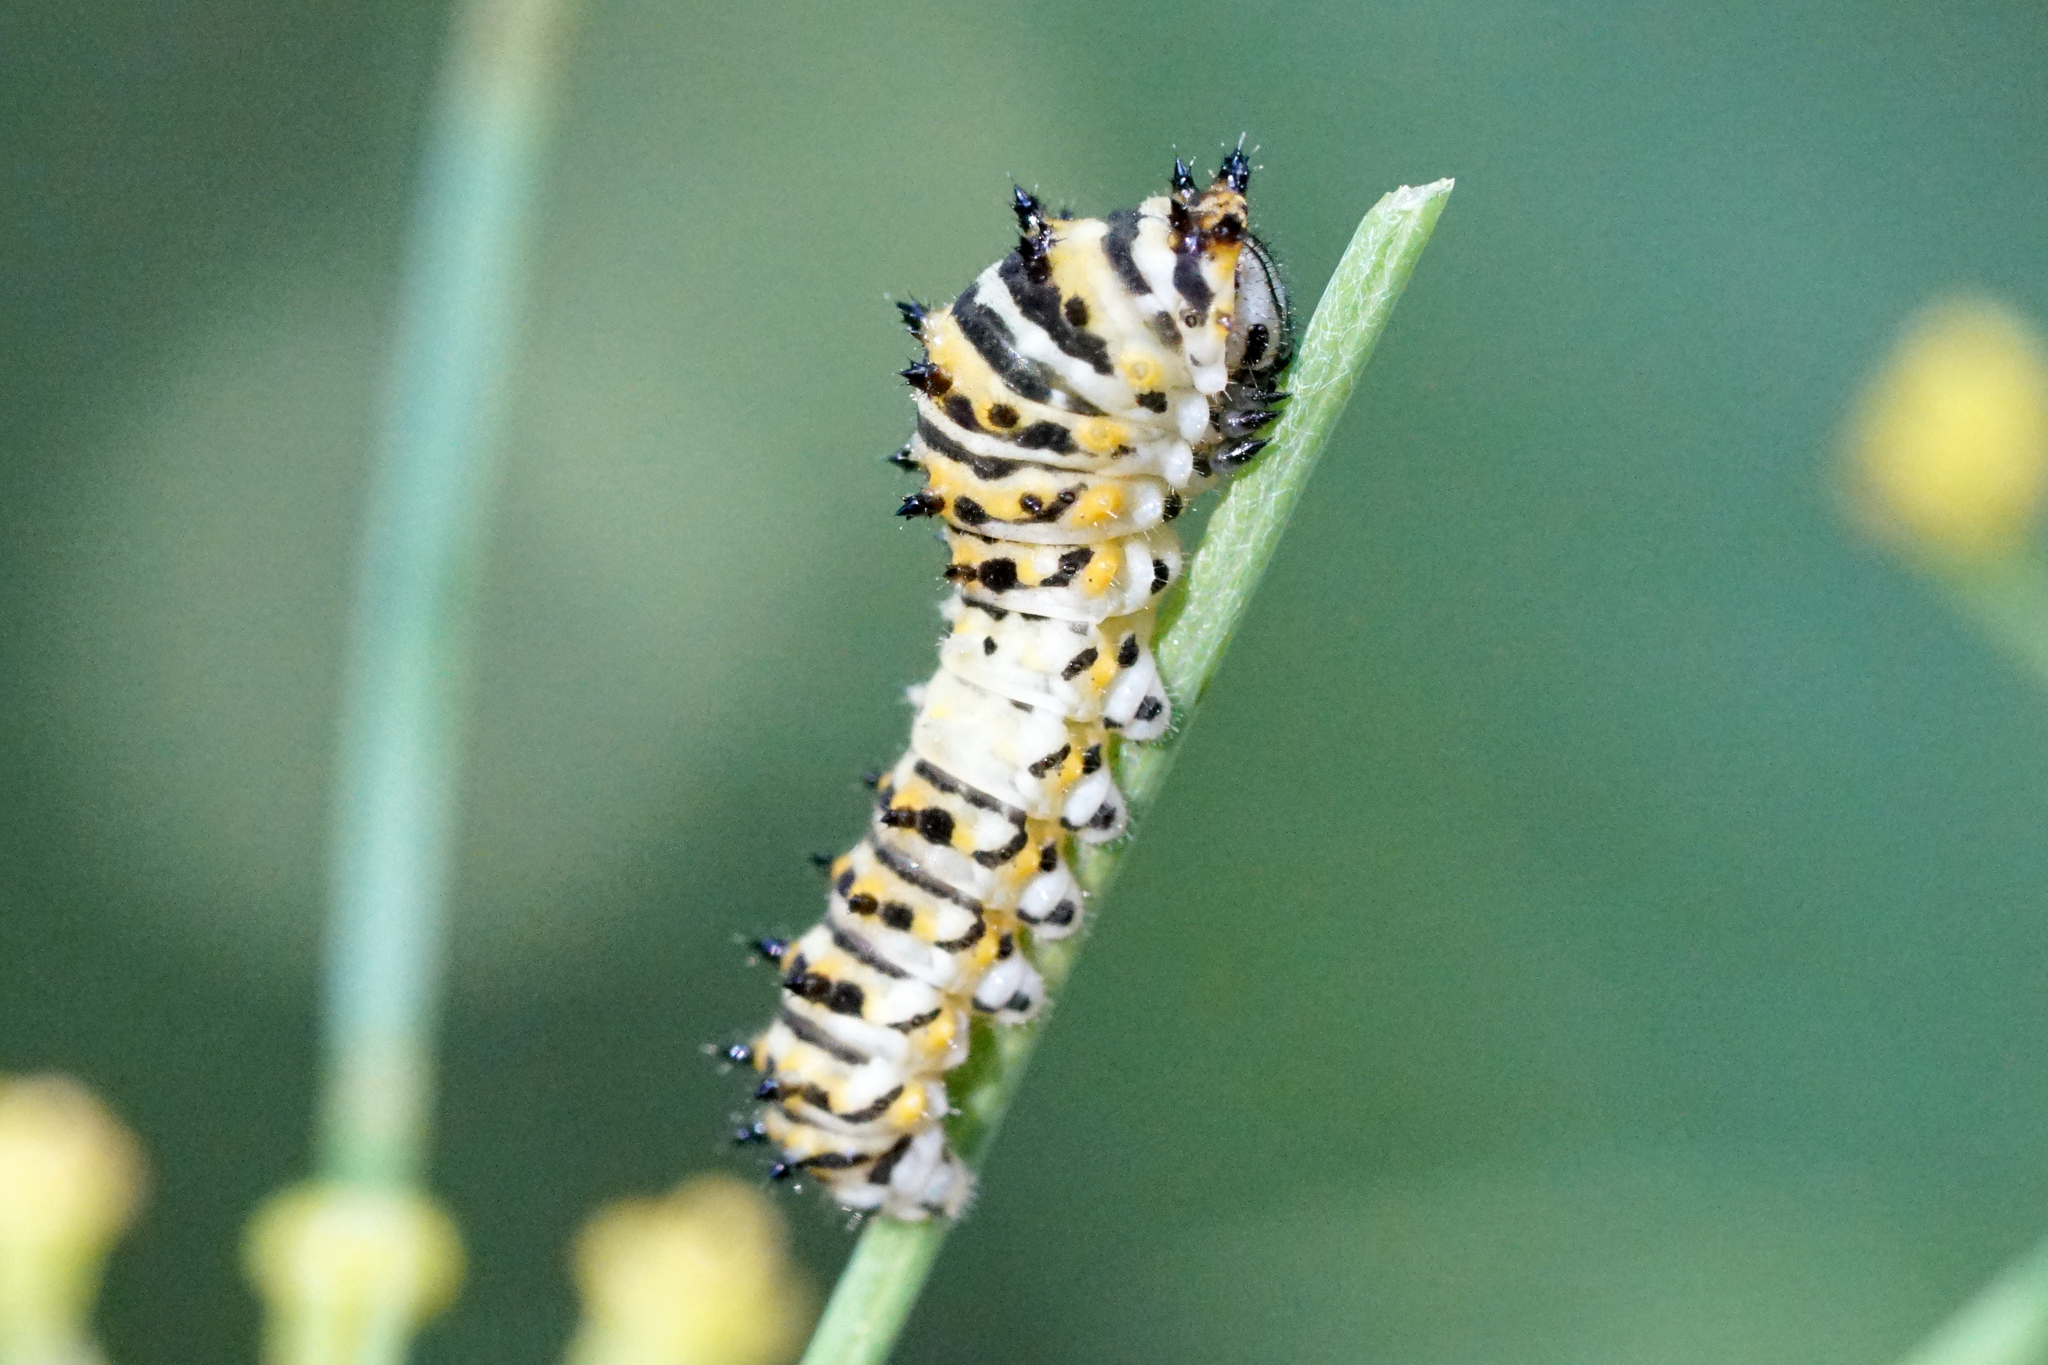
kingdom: Animalia
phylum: Arthropoda
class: Insecta
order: Lepidoptera
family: Papilionidae
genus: Papilio
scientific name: Papilio polyxenes
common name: Black swallowtail
